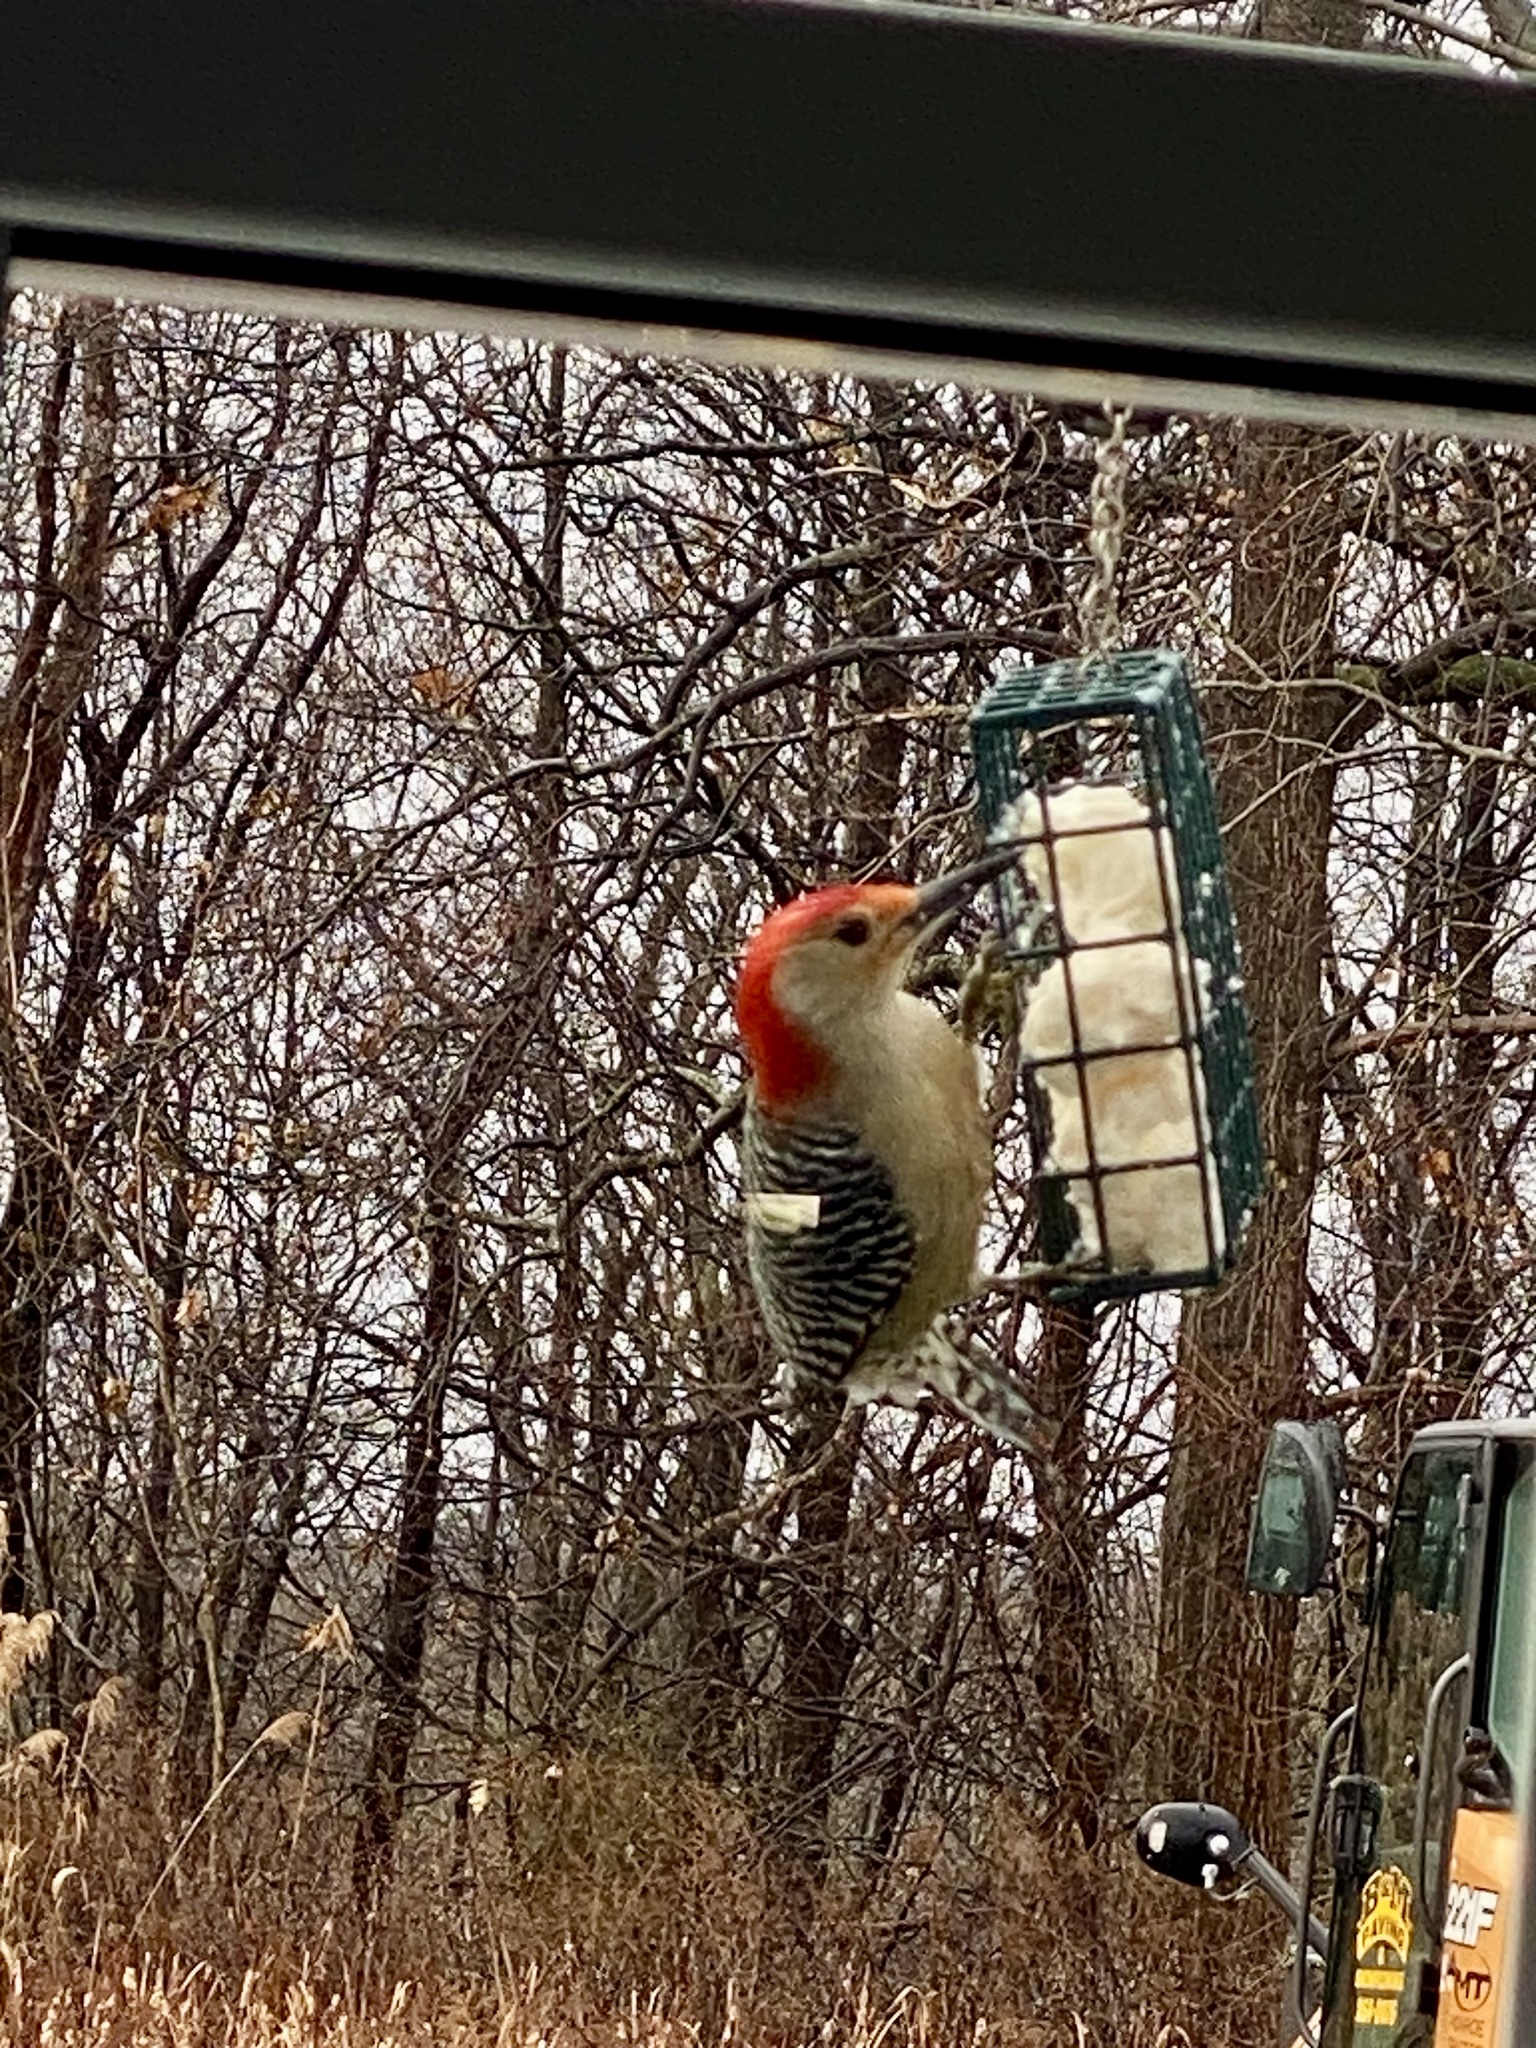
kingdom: Animalia
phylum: Chordata
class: Aves
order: Piciformes
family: Picidae
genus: Melanerpes
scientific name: Melanerpes carolinus
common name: Red-bellied woodpecker
